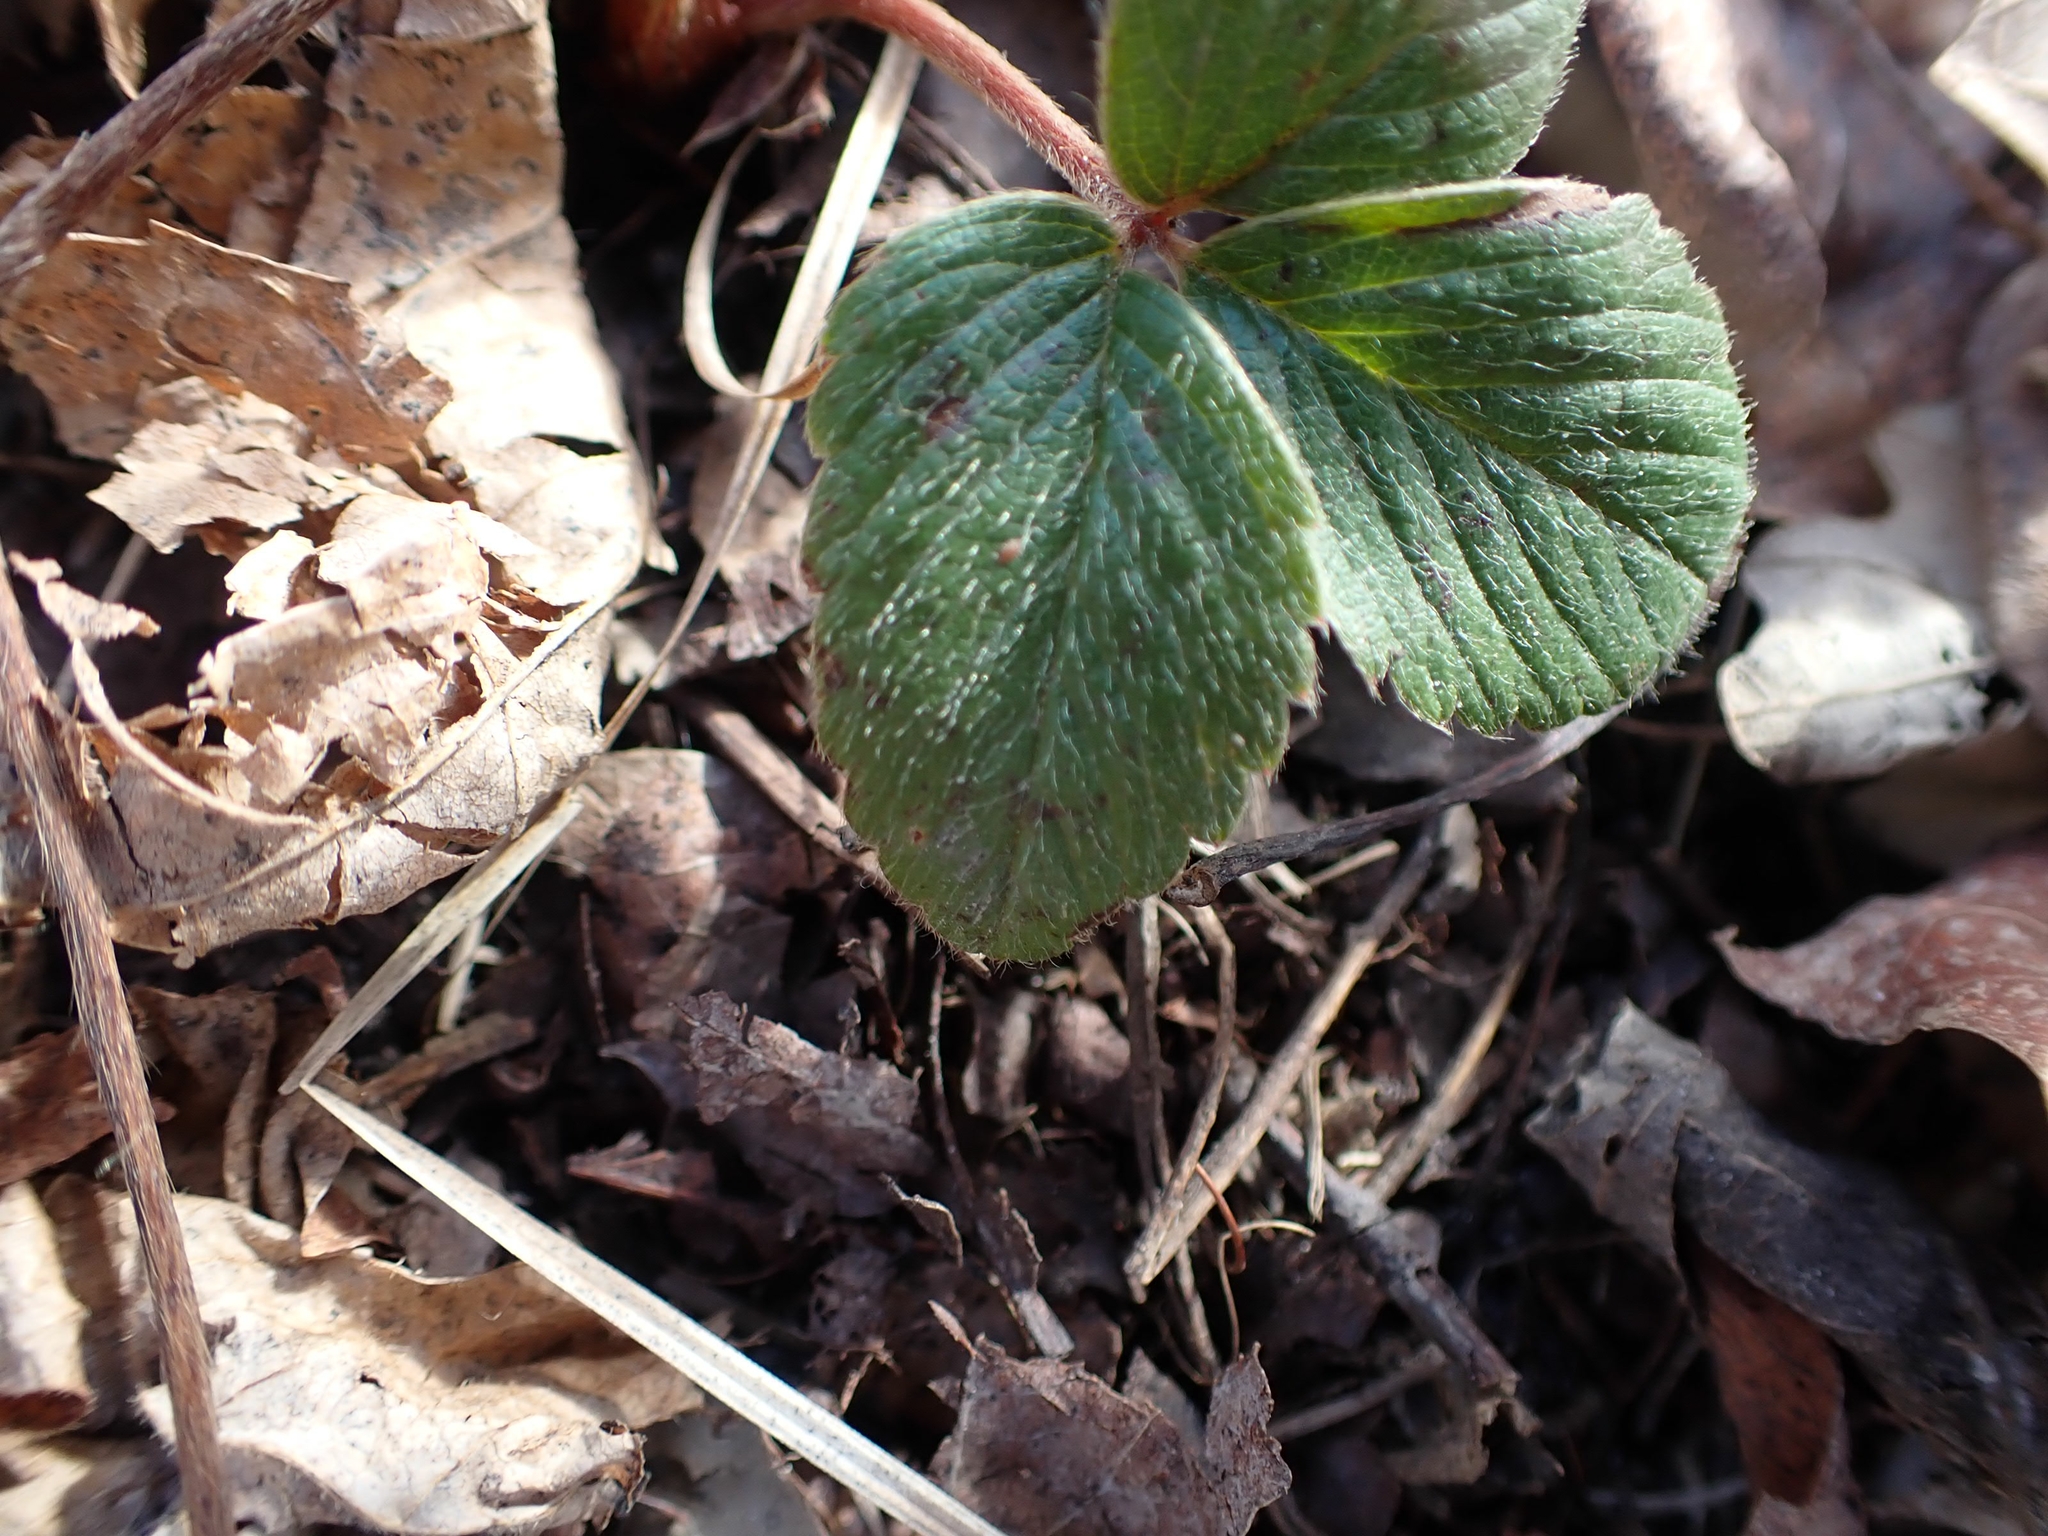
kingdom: Plantae
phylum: Tracheophyta
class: Magnoliopsida
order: Rosales
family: Rosaceae
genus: Fragaria
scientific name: Fragaria virginiana
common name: Thickleaved wild strawberry
